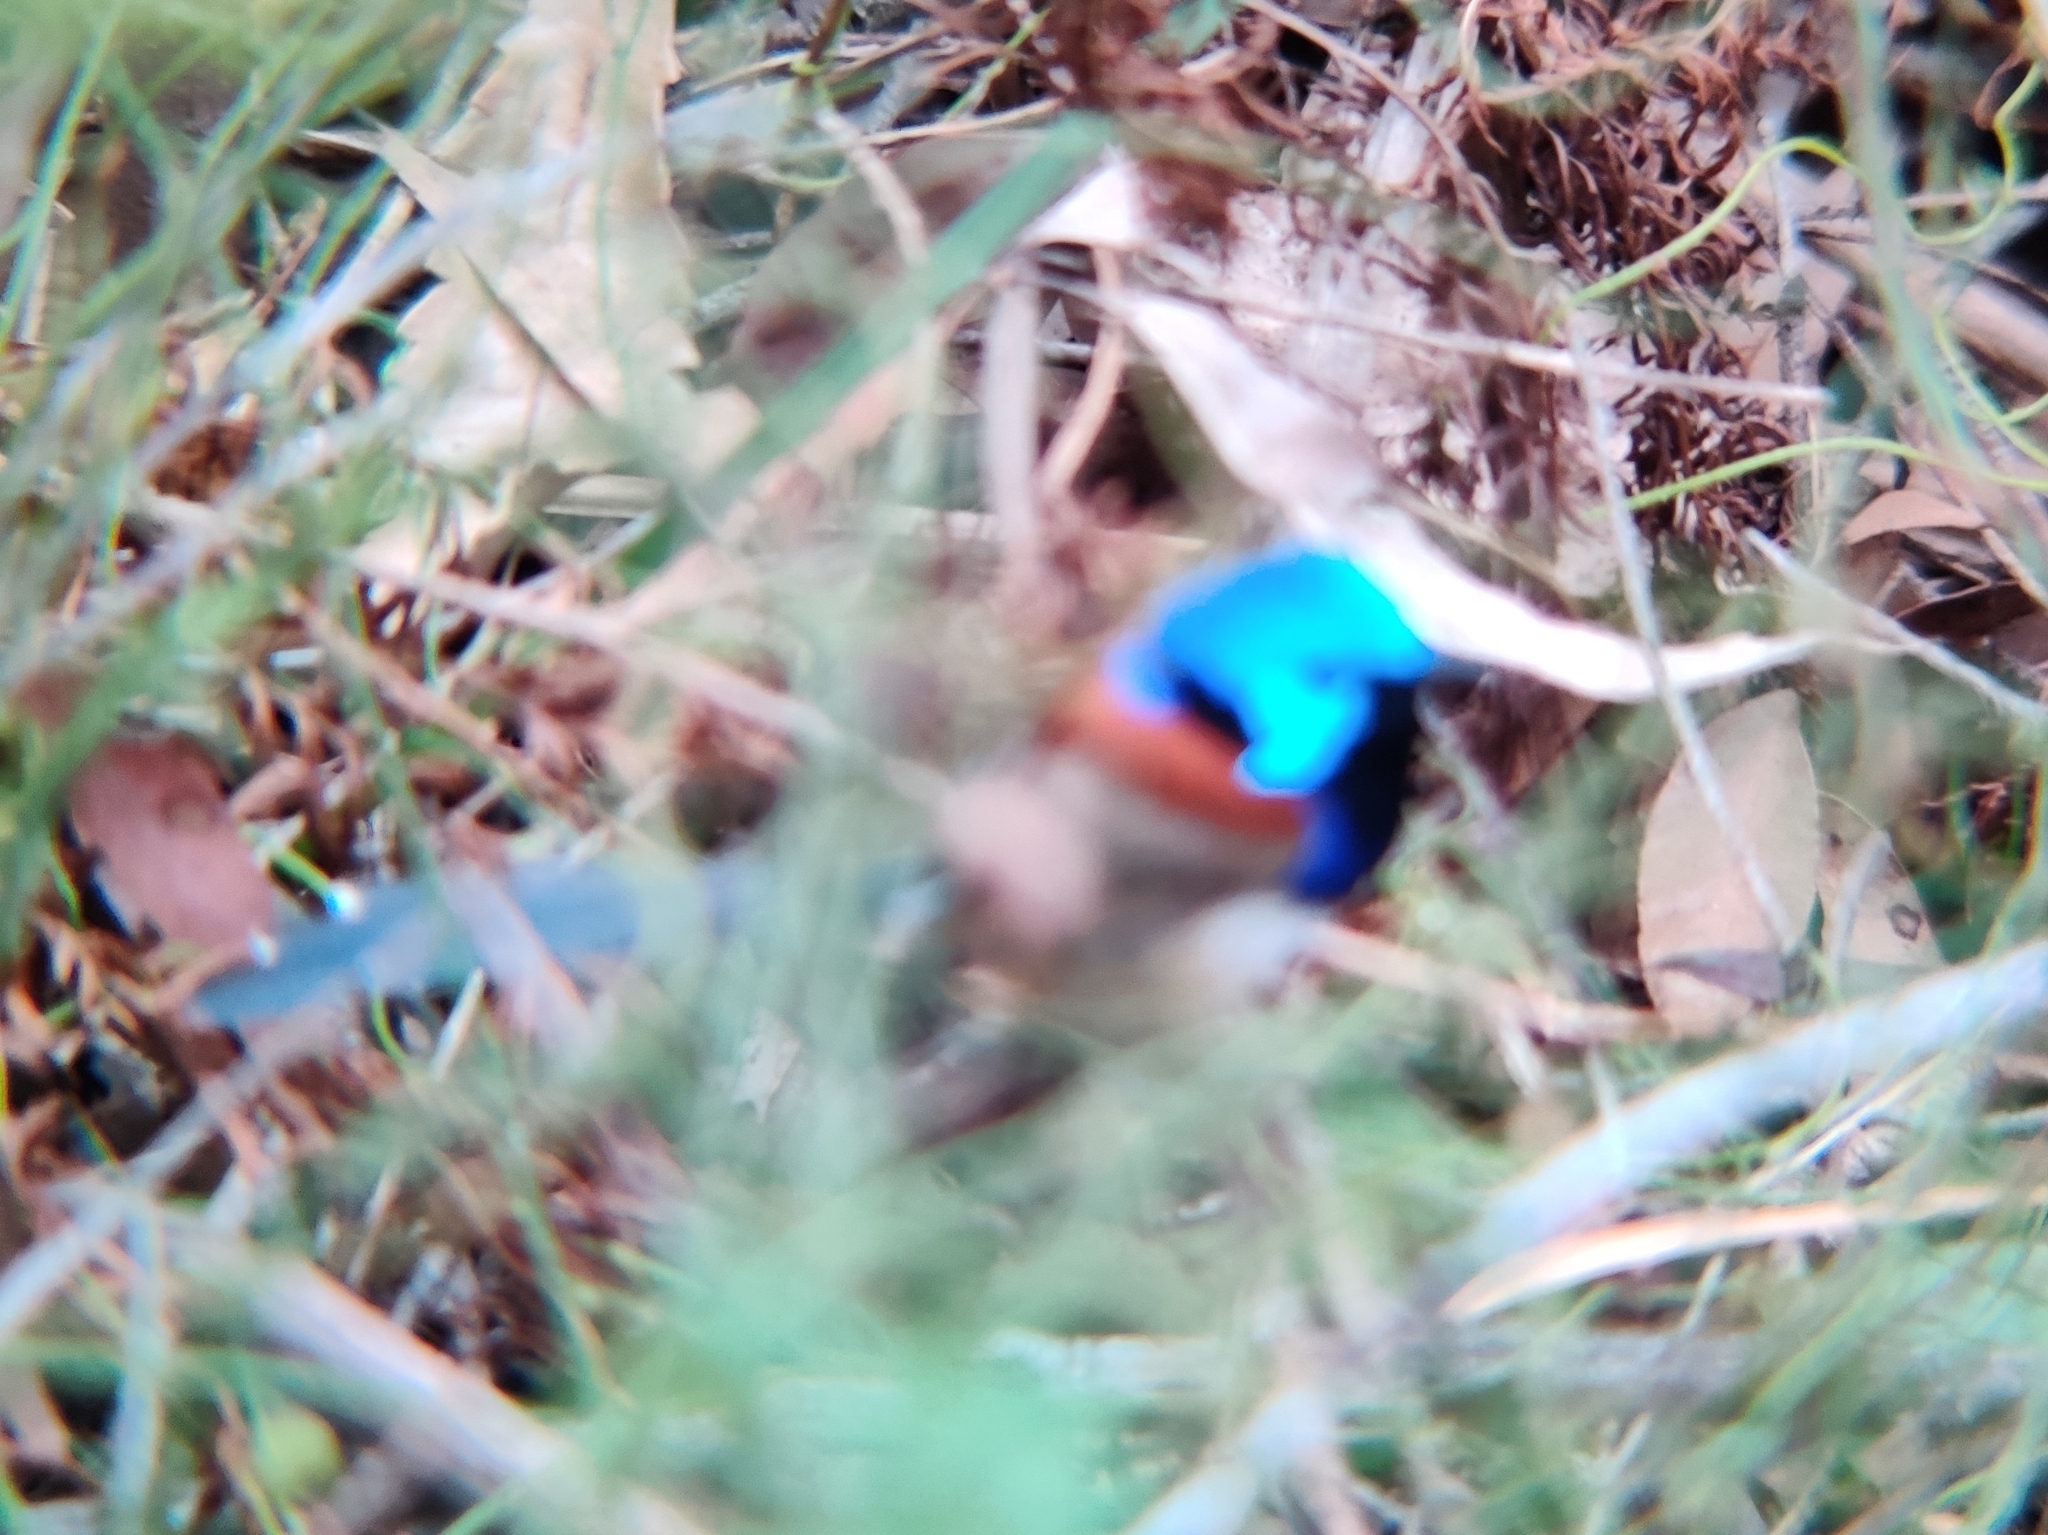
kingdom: Animalia
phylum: Chordata
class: Aves
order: Passeriformes
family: Maluridae
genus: Malurus
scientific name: Malurus lamberti
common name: Variegated fairywren
